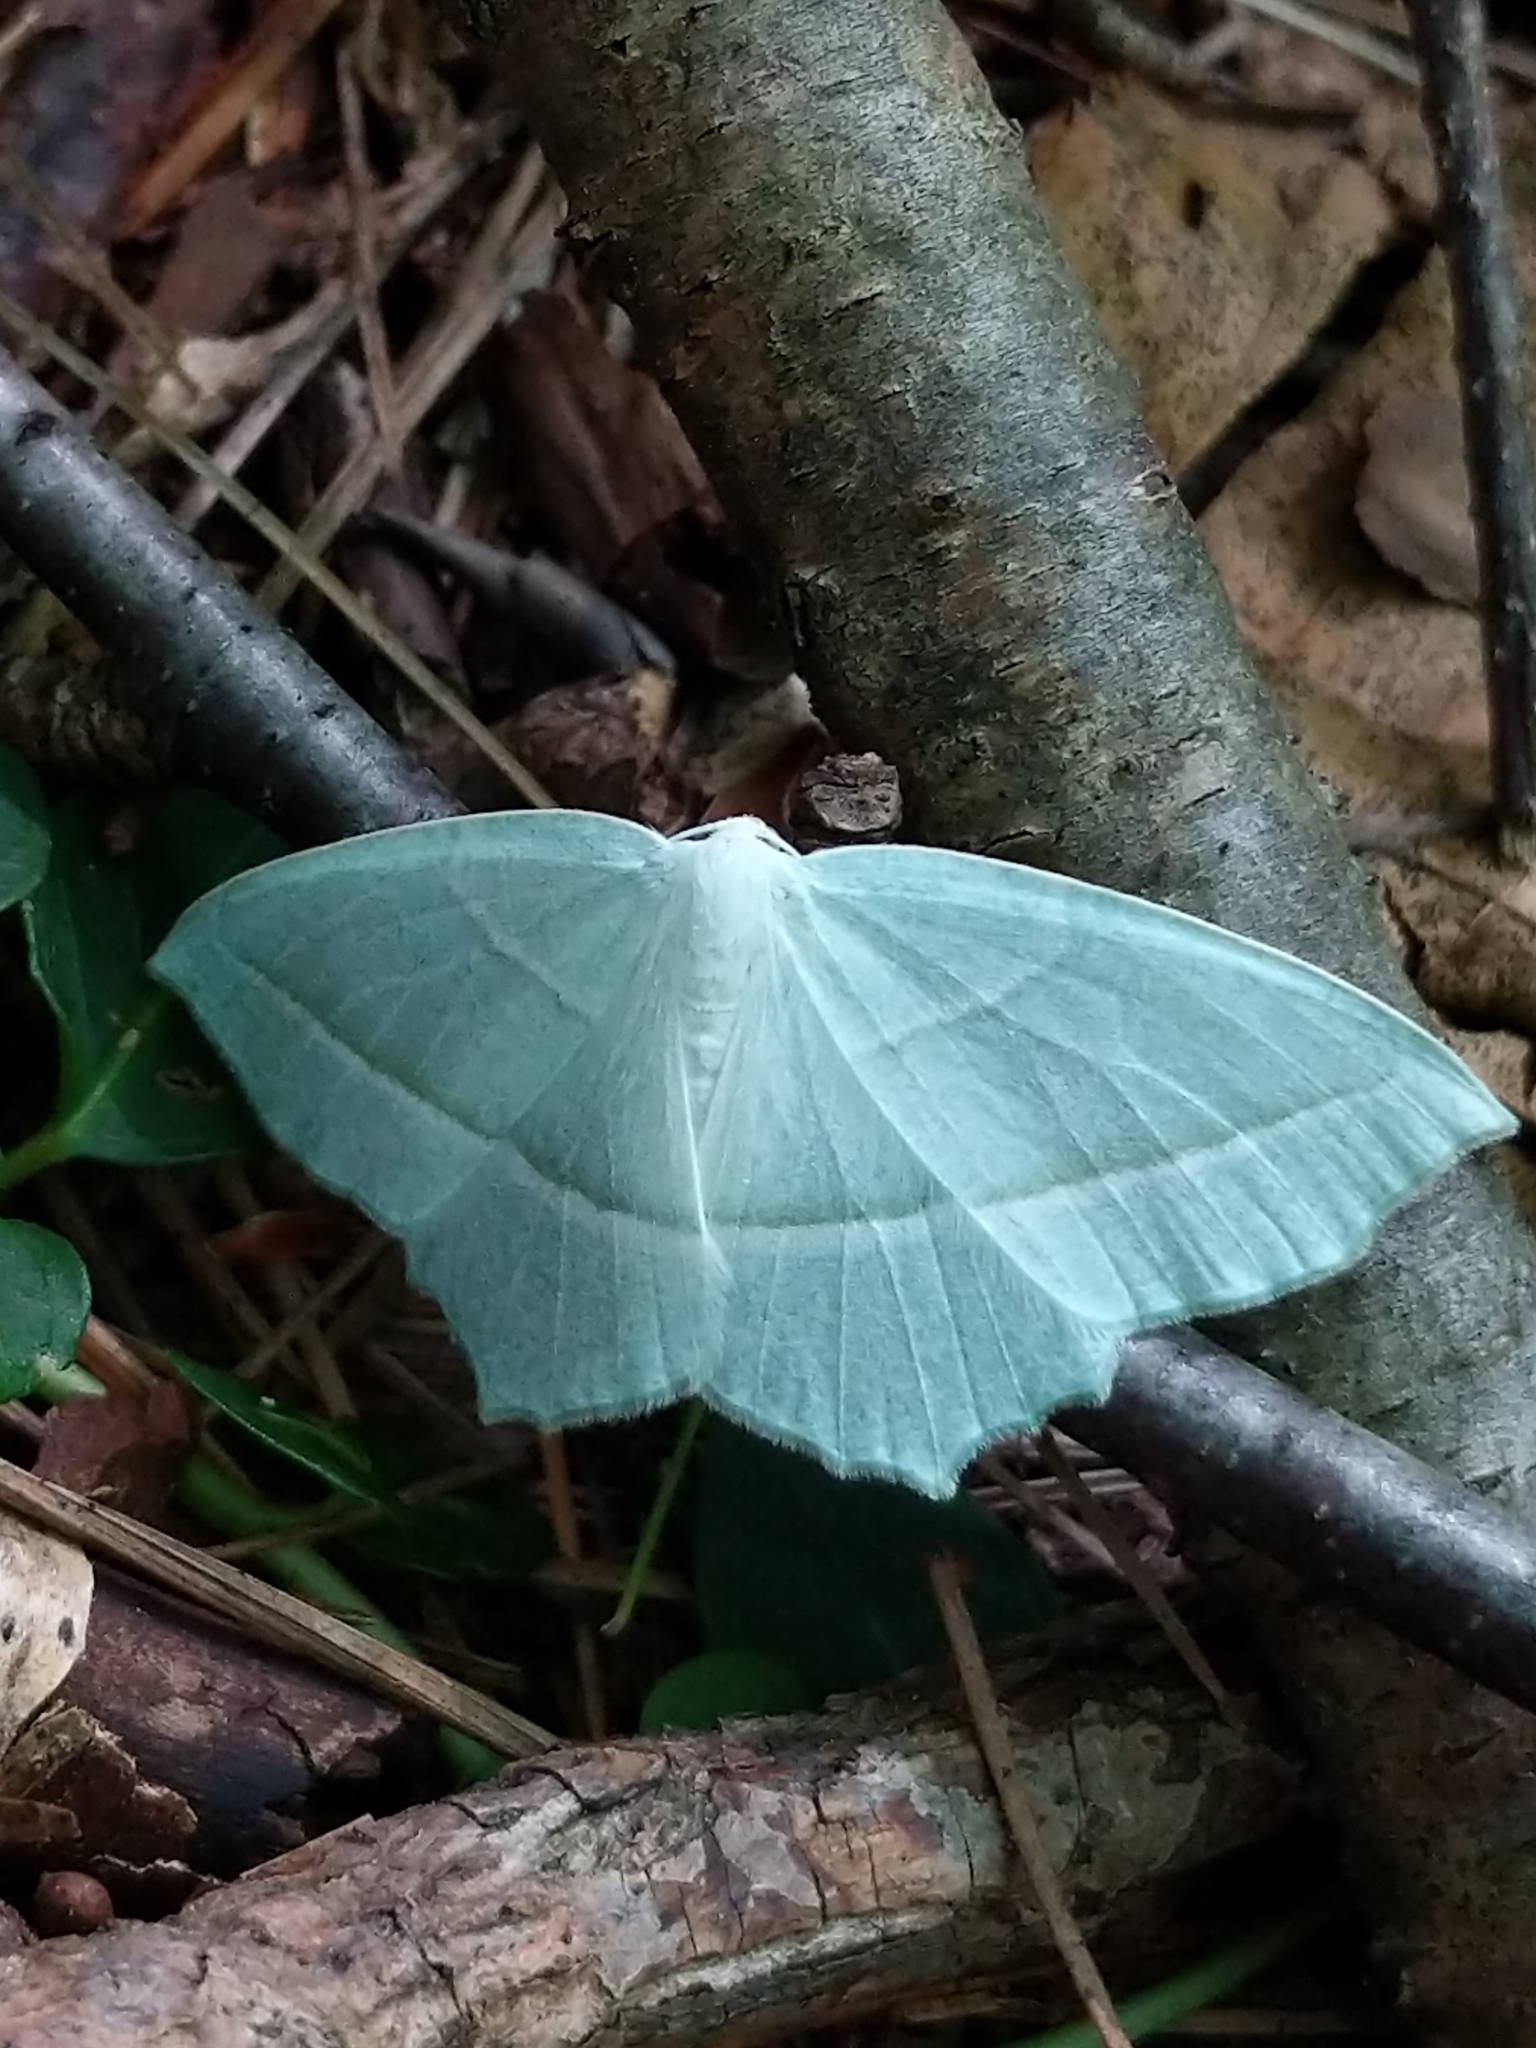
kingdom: Animalia
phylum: Arthropoda
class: Insecta
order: Lepidoptera
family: Geometridae
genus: Campaea
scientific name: Campaea perlata
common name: Fringed looper
